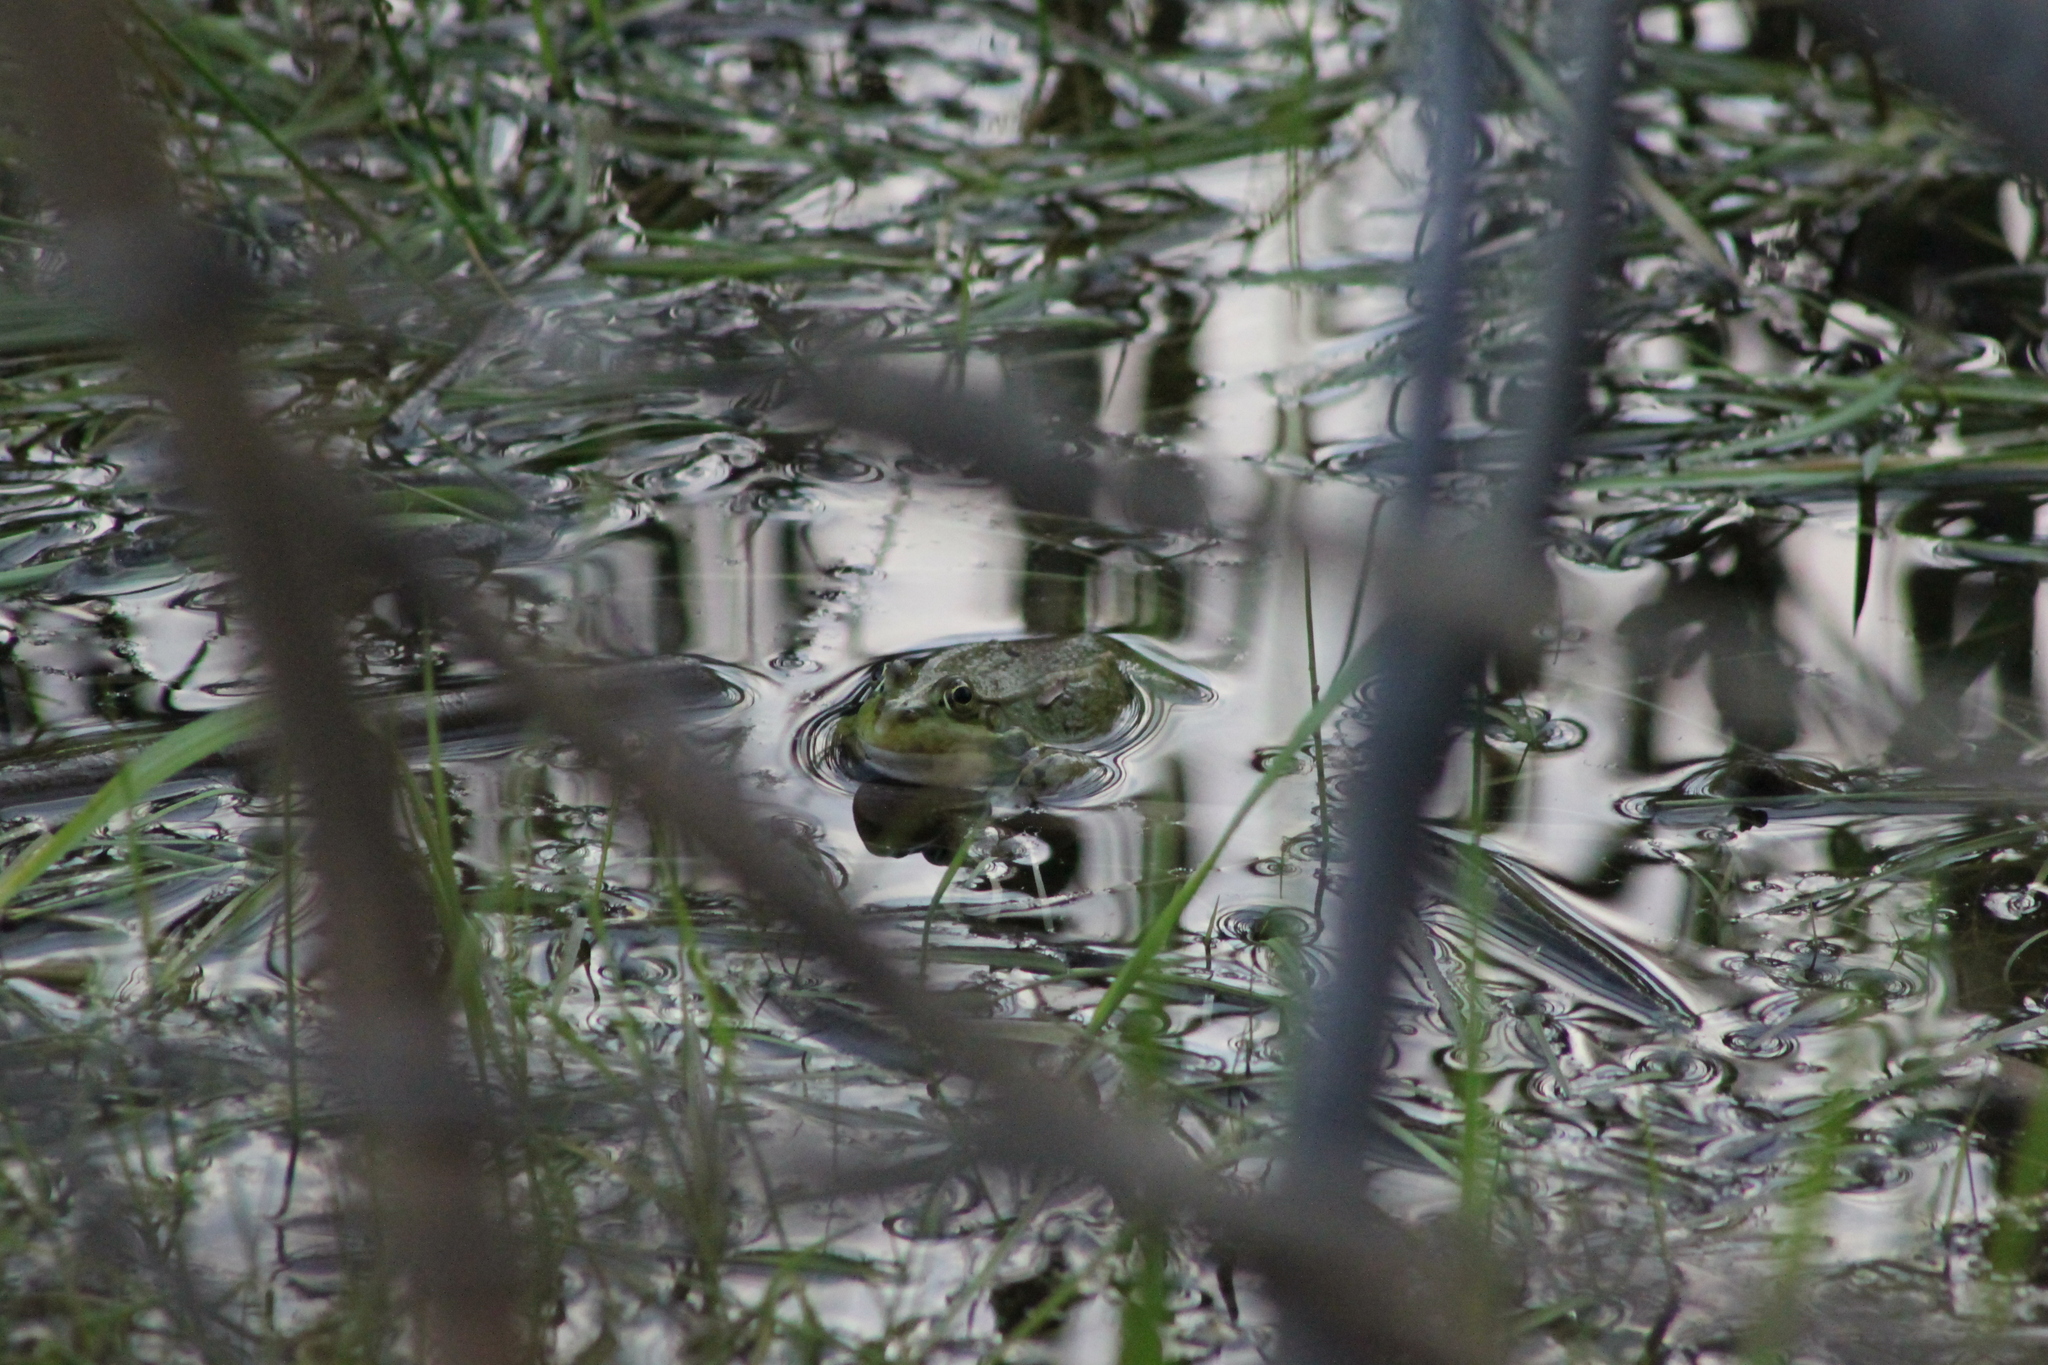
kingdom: Animalia
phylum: Chordata
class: Amphibia
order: Anura
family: Ranidae
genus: Pelophylax
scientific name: Pelophylax ridibundus
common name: Marsh frog
